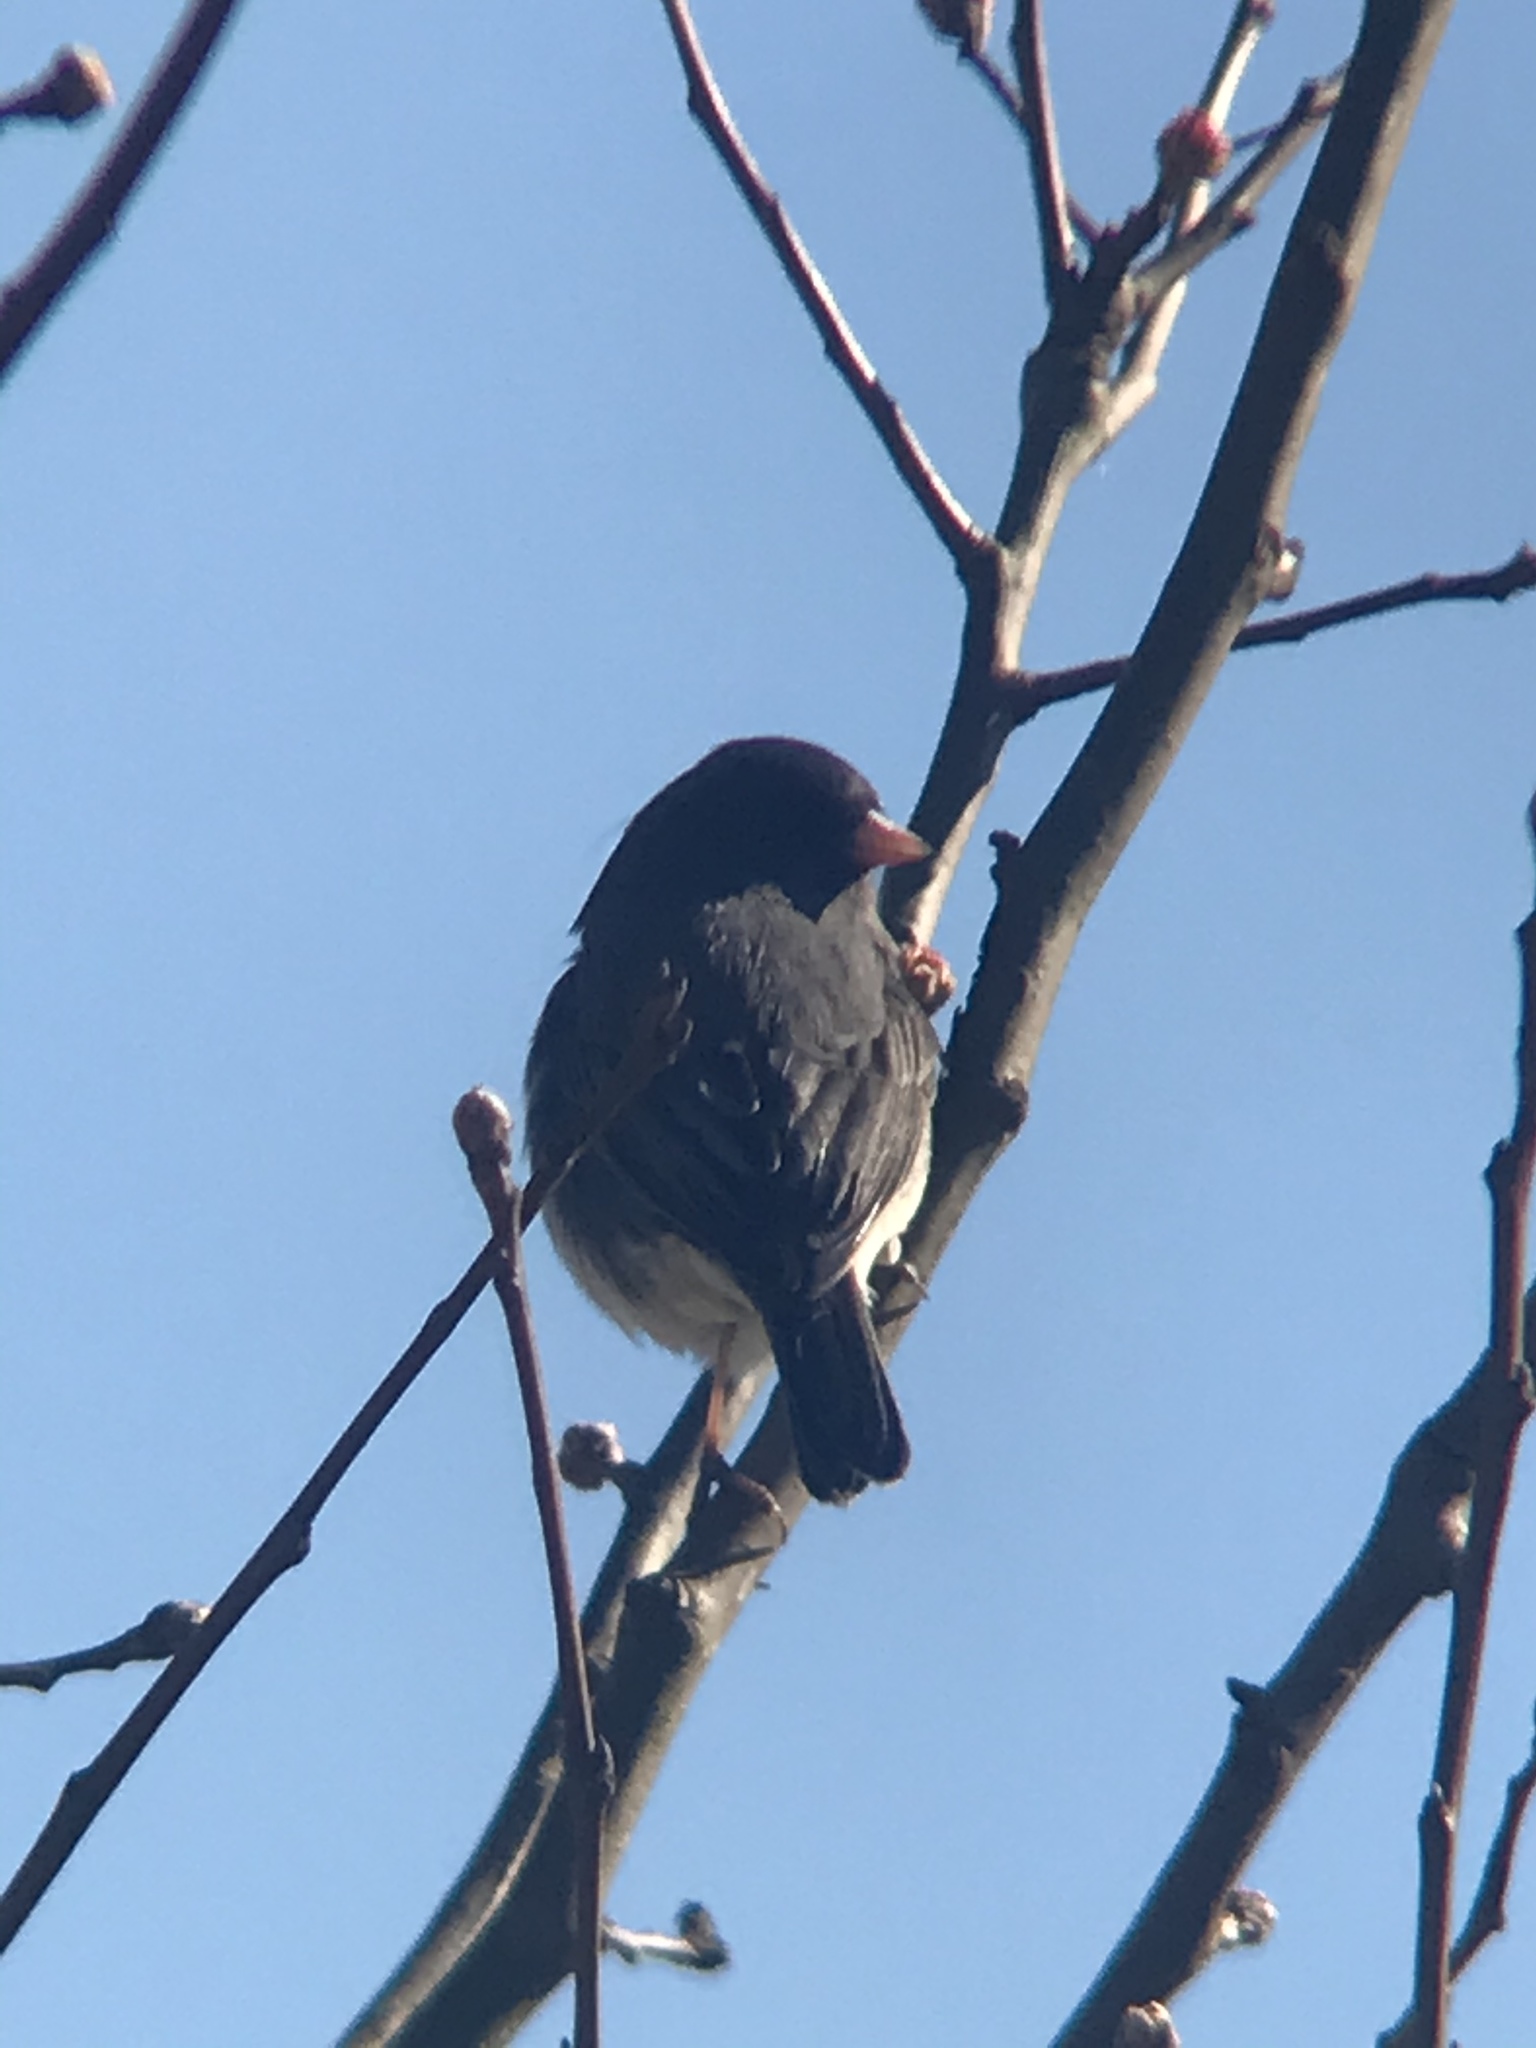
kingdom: Animalia
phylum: Chordata
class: Aves
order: Passeriformes
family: Passerellidae
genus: Junco
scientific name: Junco hyemalis
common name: Dark-eyed junco
